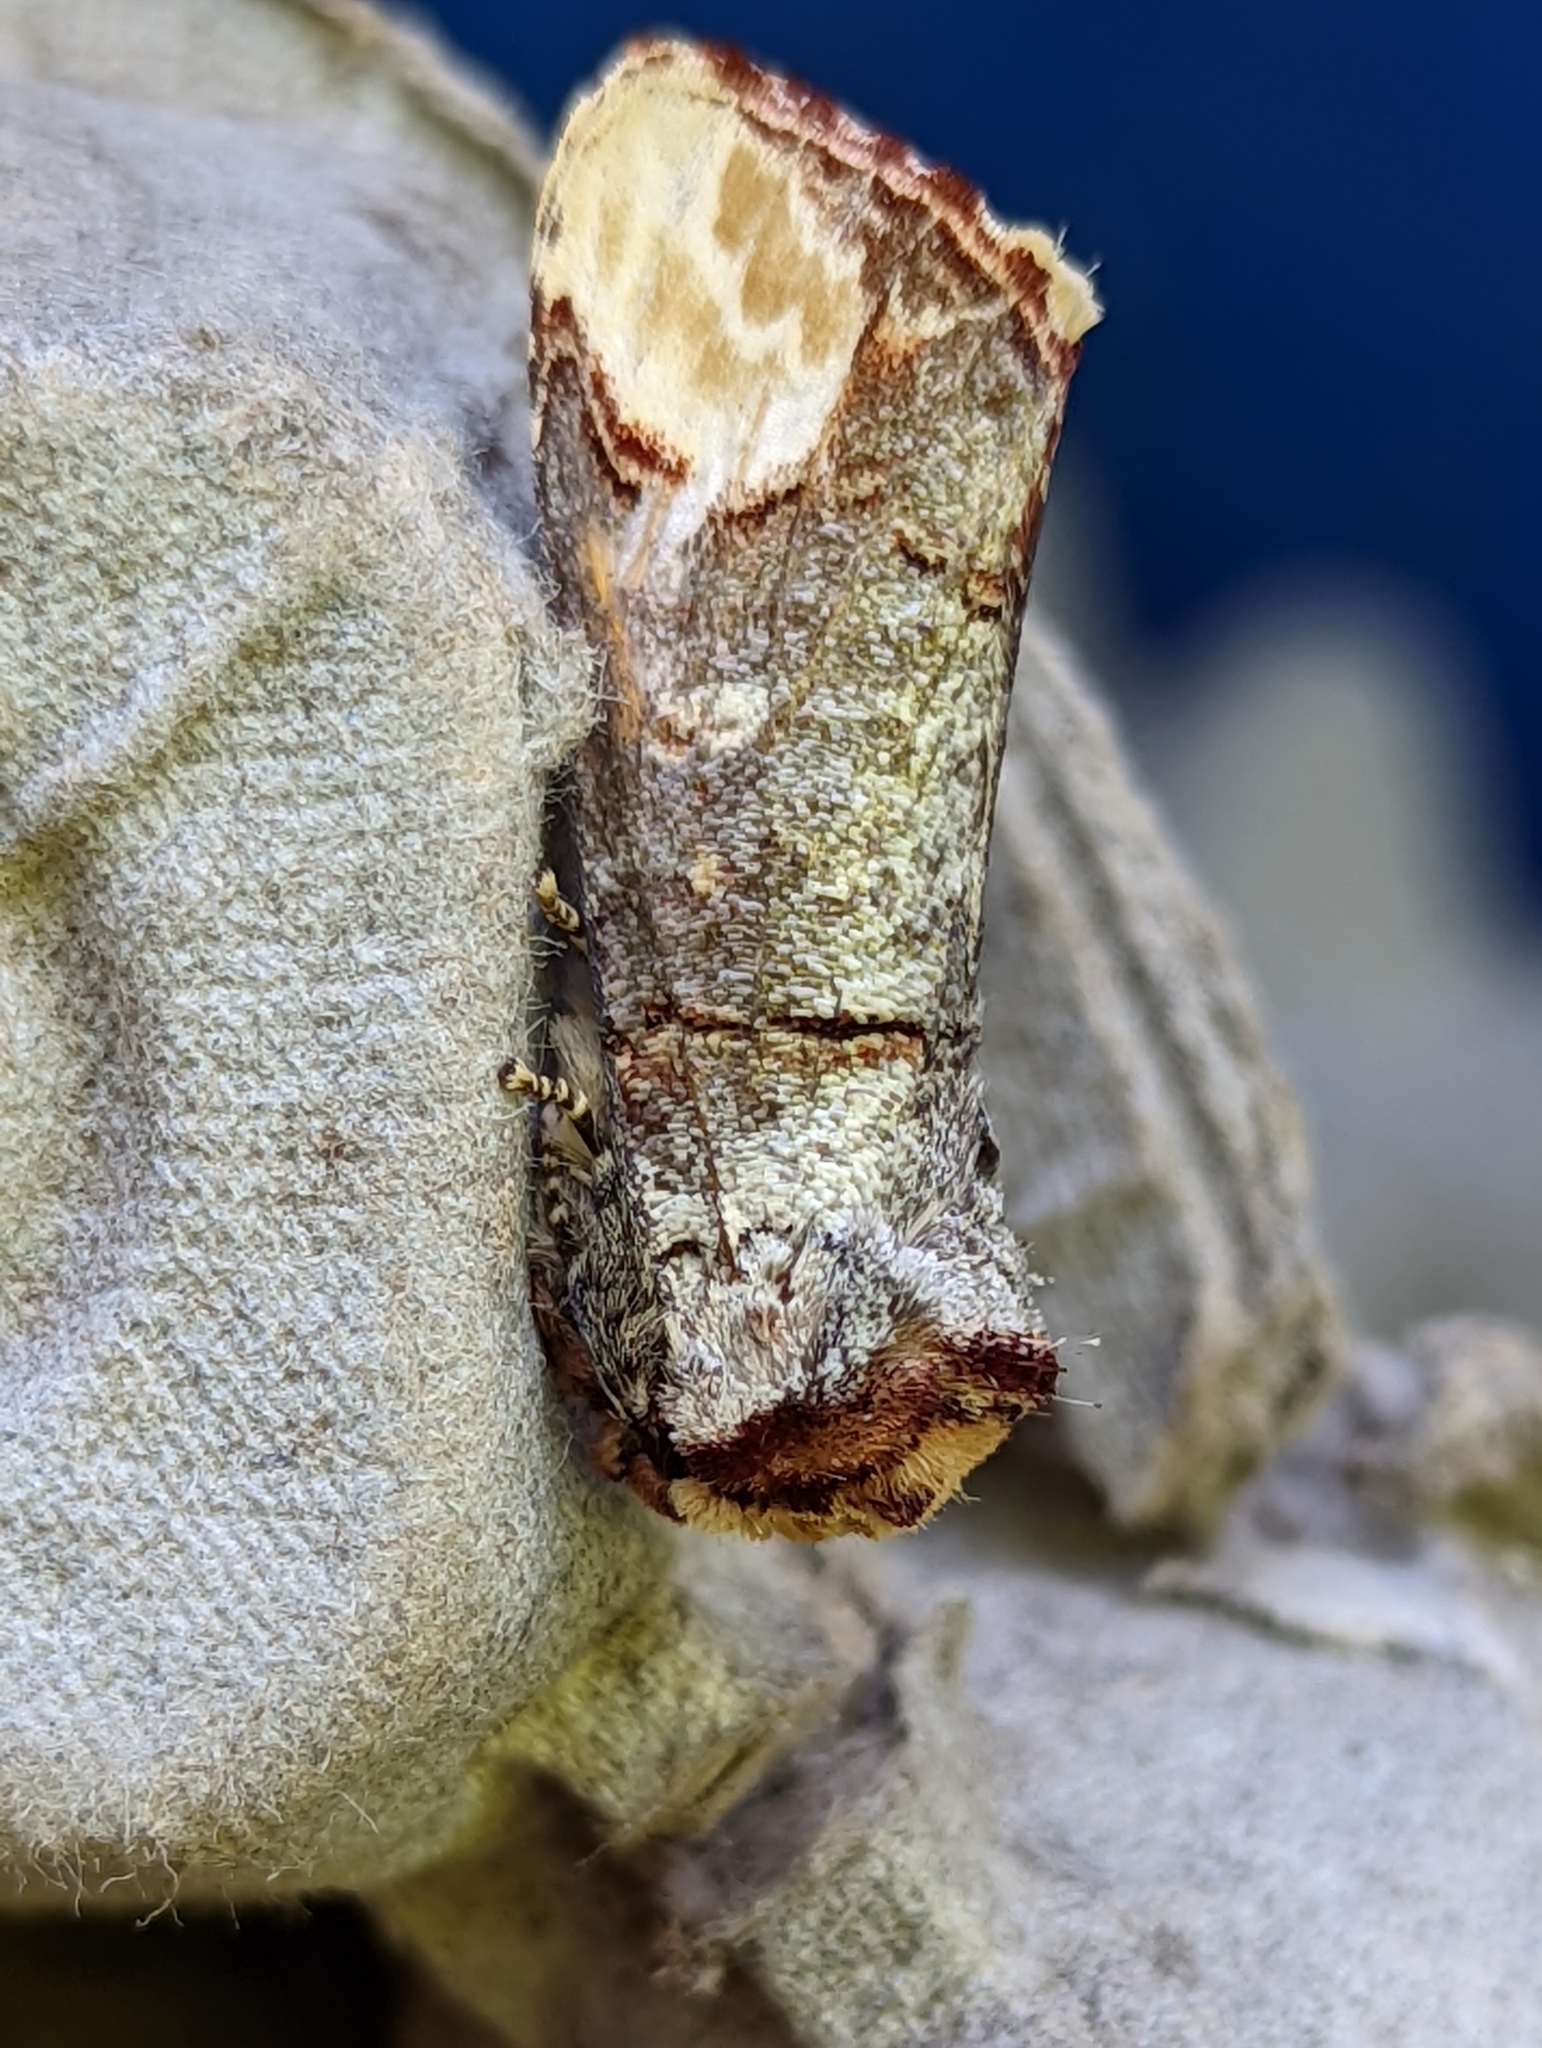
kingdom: Animalia
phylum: Arthropoda
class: Insecta
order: Lepidoptera
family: Notodontidae
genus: Phalera
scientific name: Phalera bucephala
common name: Buff-tip
